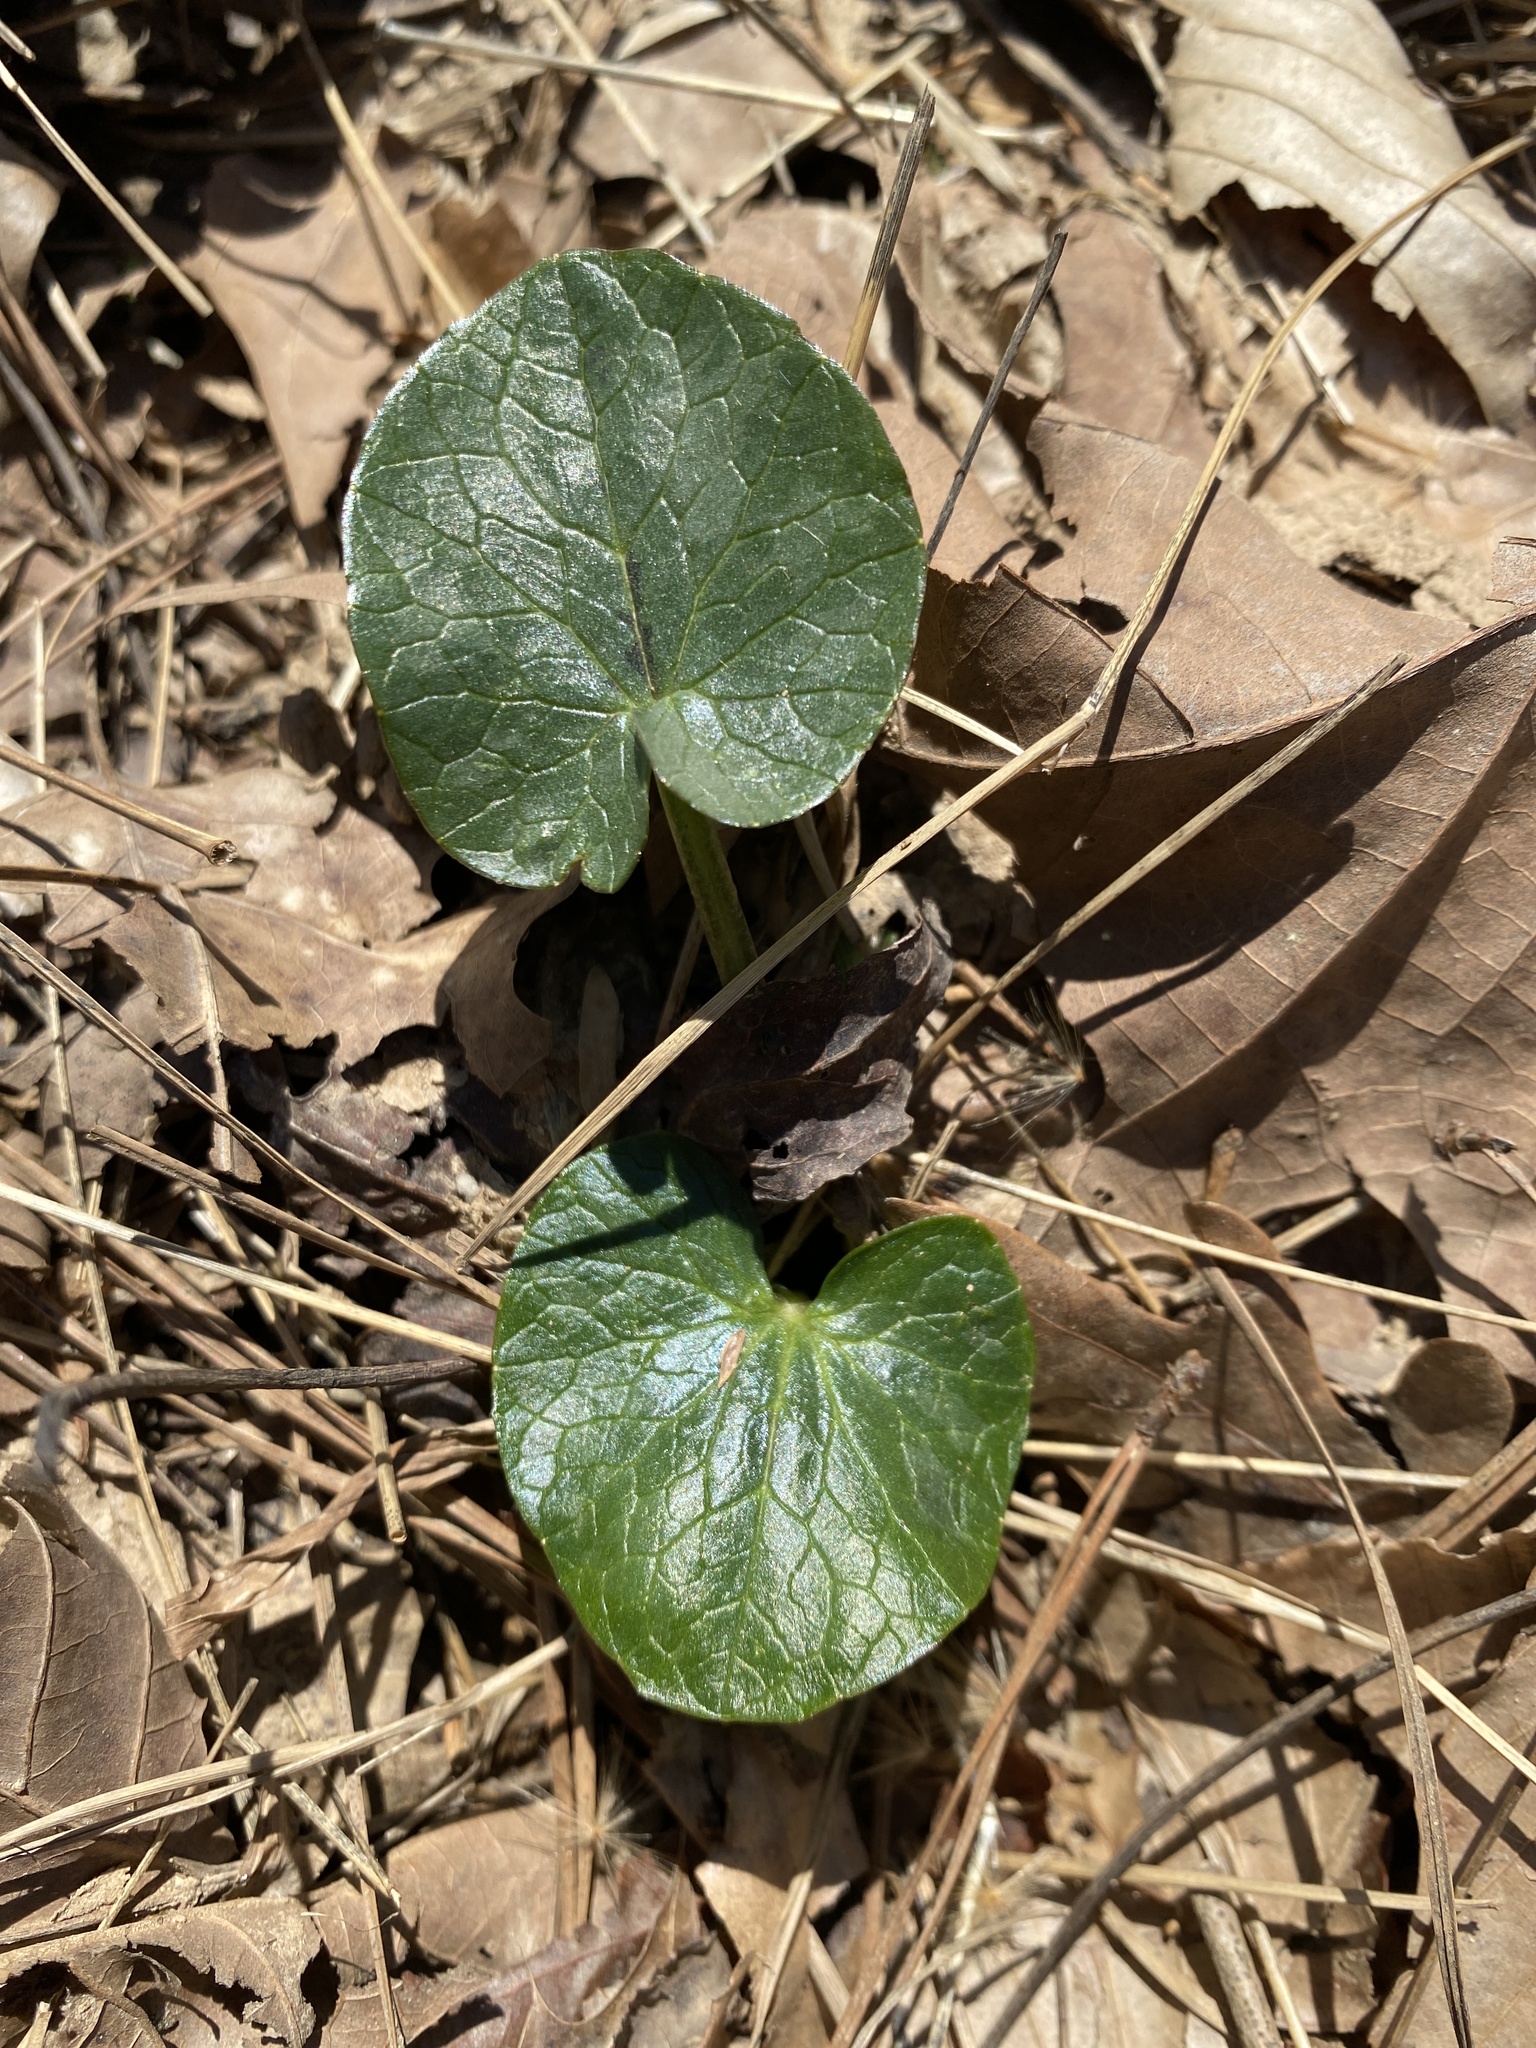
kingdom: Plantae
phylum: Tracheophyta
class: Magnoliopsida
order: Ranunculales
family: Ranunculaceae
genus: Ficaria
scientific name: Ficaria verna
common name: Lesser celandine
